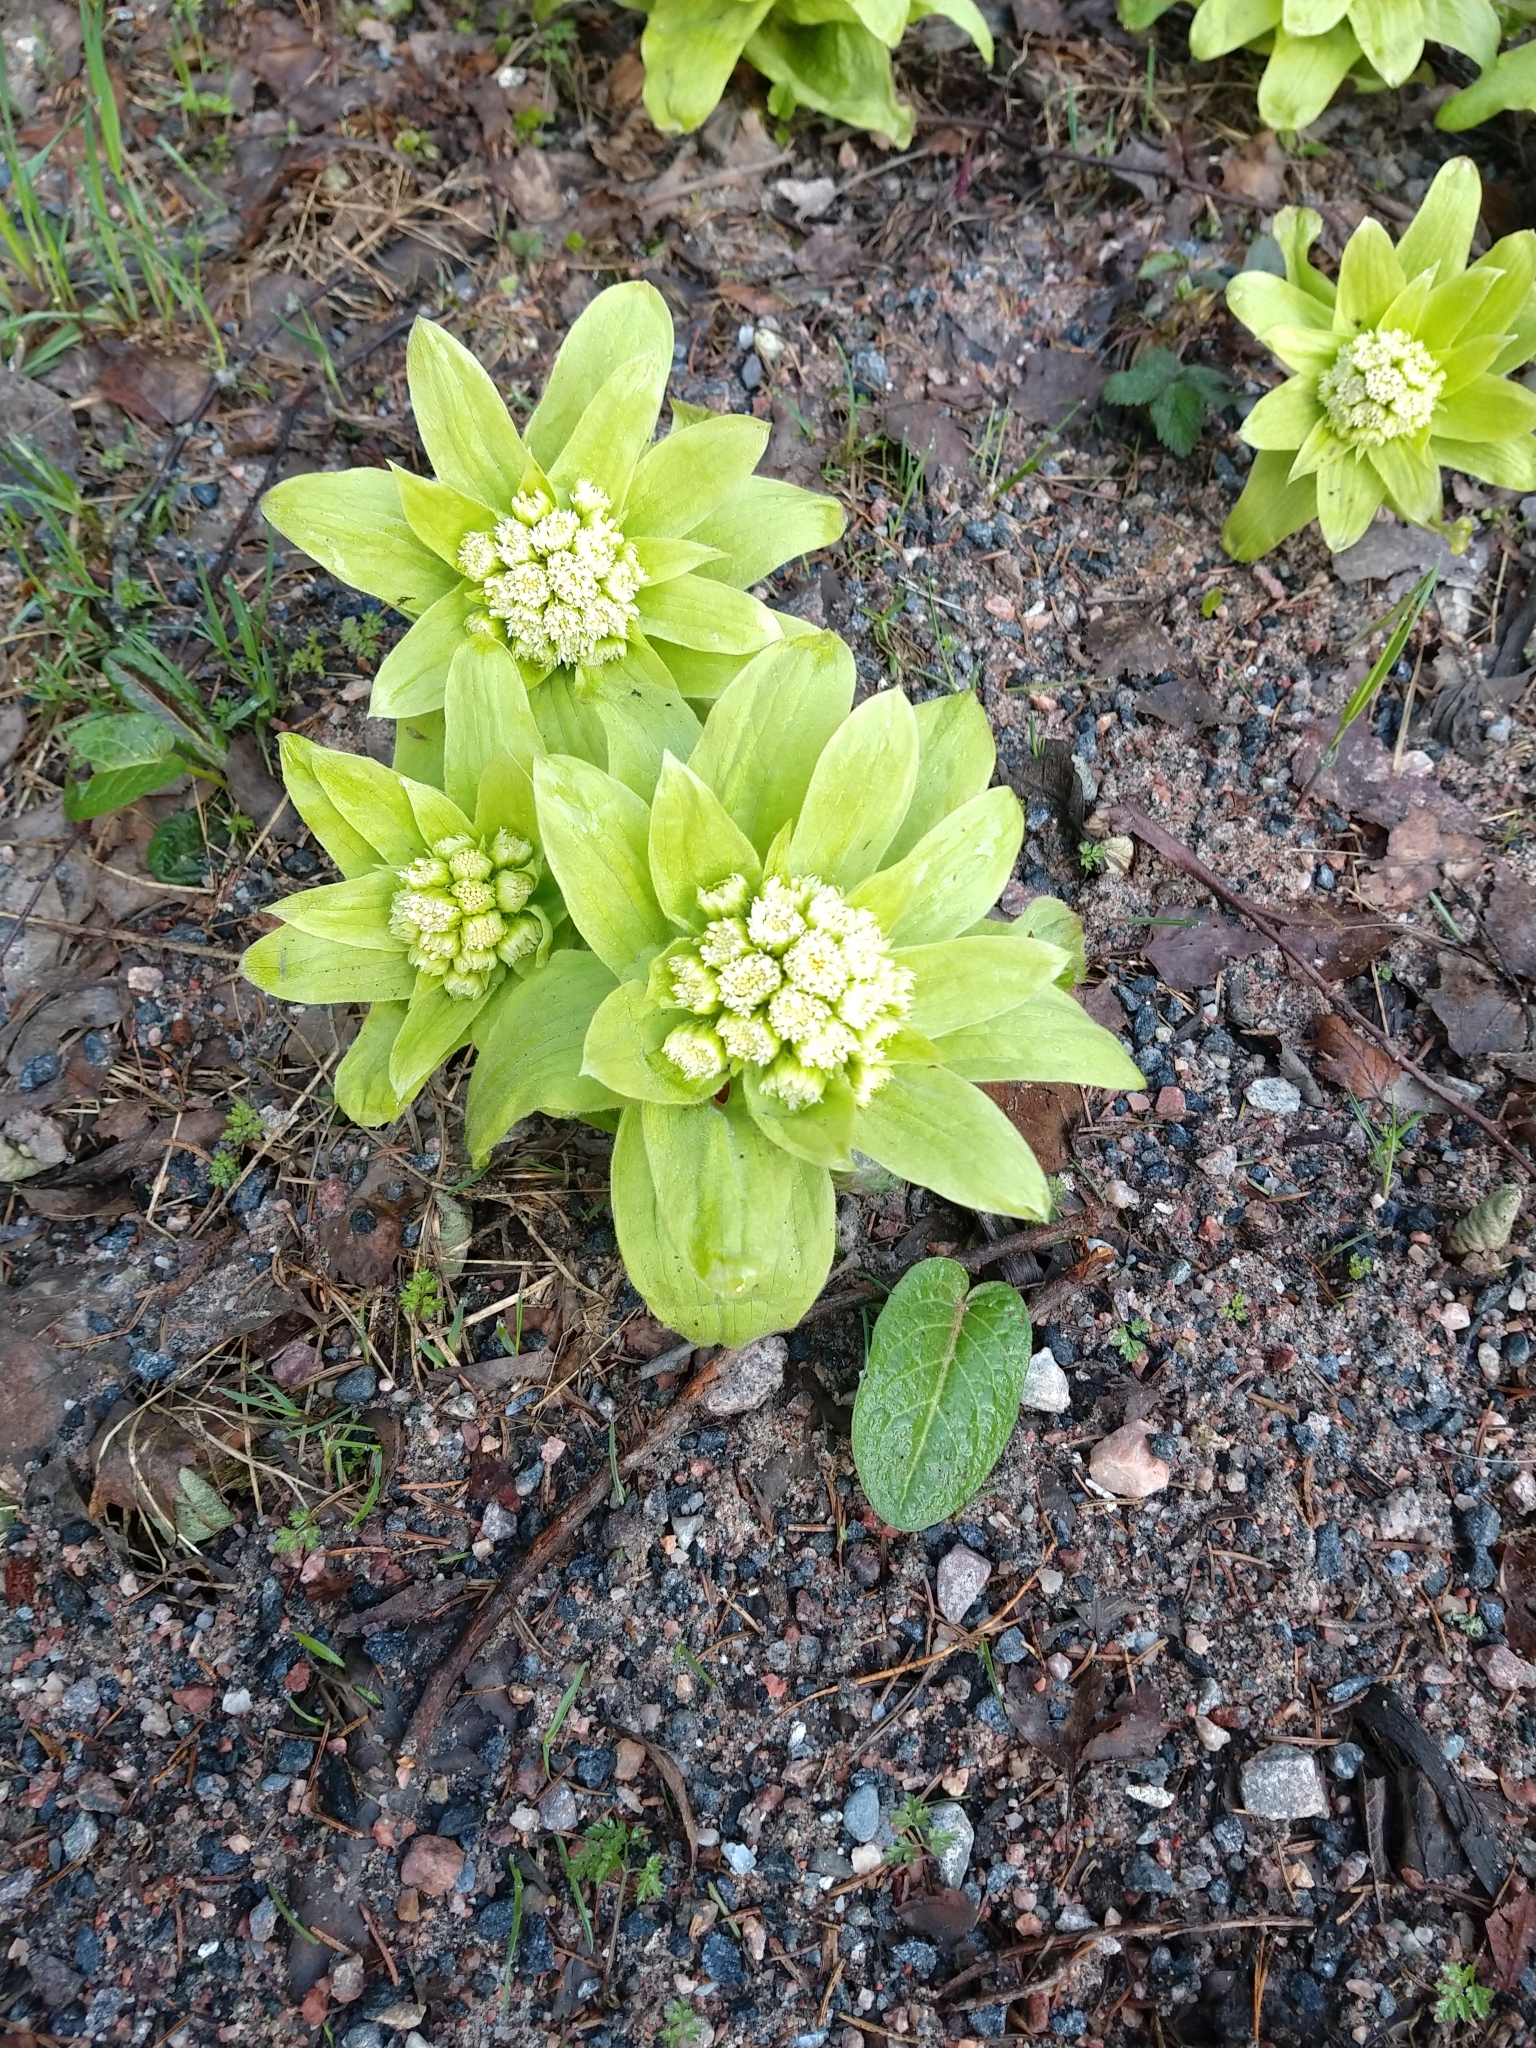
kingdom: Plantae
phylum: Tracheophyta
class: Magnoliopsida
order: Asterales
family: Asteraceae
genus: Petasites
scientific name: Petasites japonicus
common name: Giant butterbur
